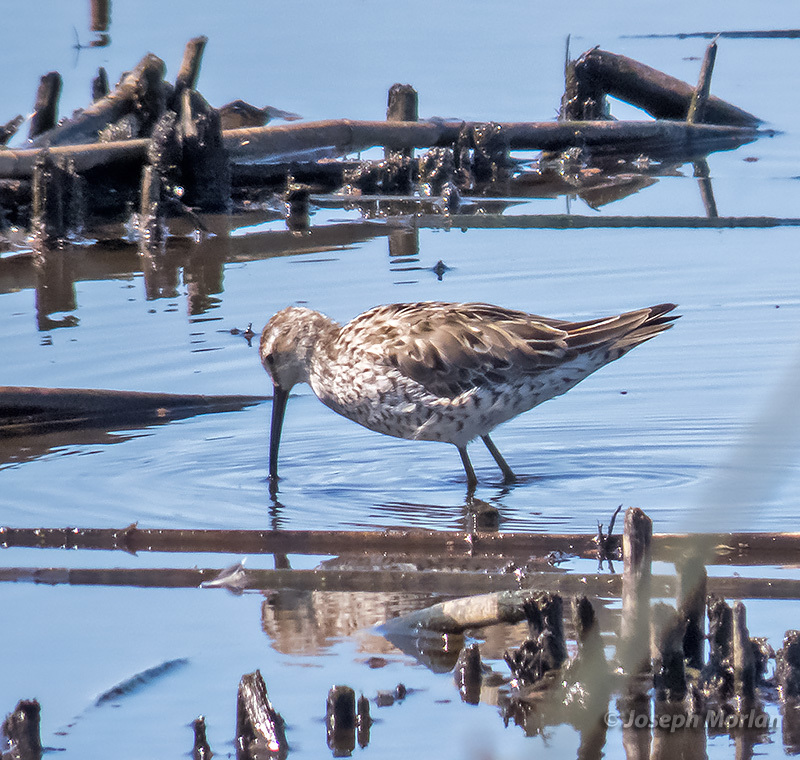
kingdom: Animalia
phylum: Chordata
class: Aves
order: Charadriiformes
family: Scolopacidae
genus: Calidris
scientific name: Calidris himantopus
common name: Stilt sandpiper
